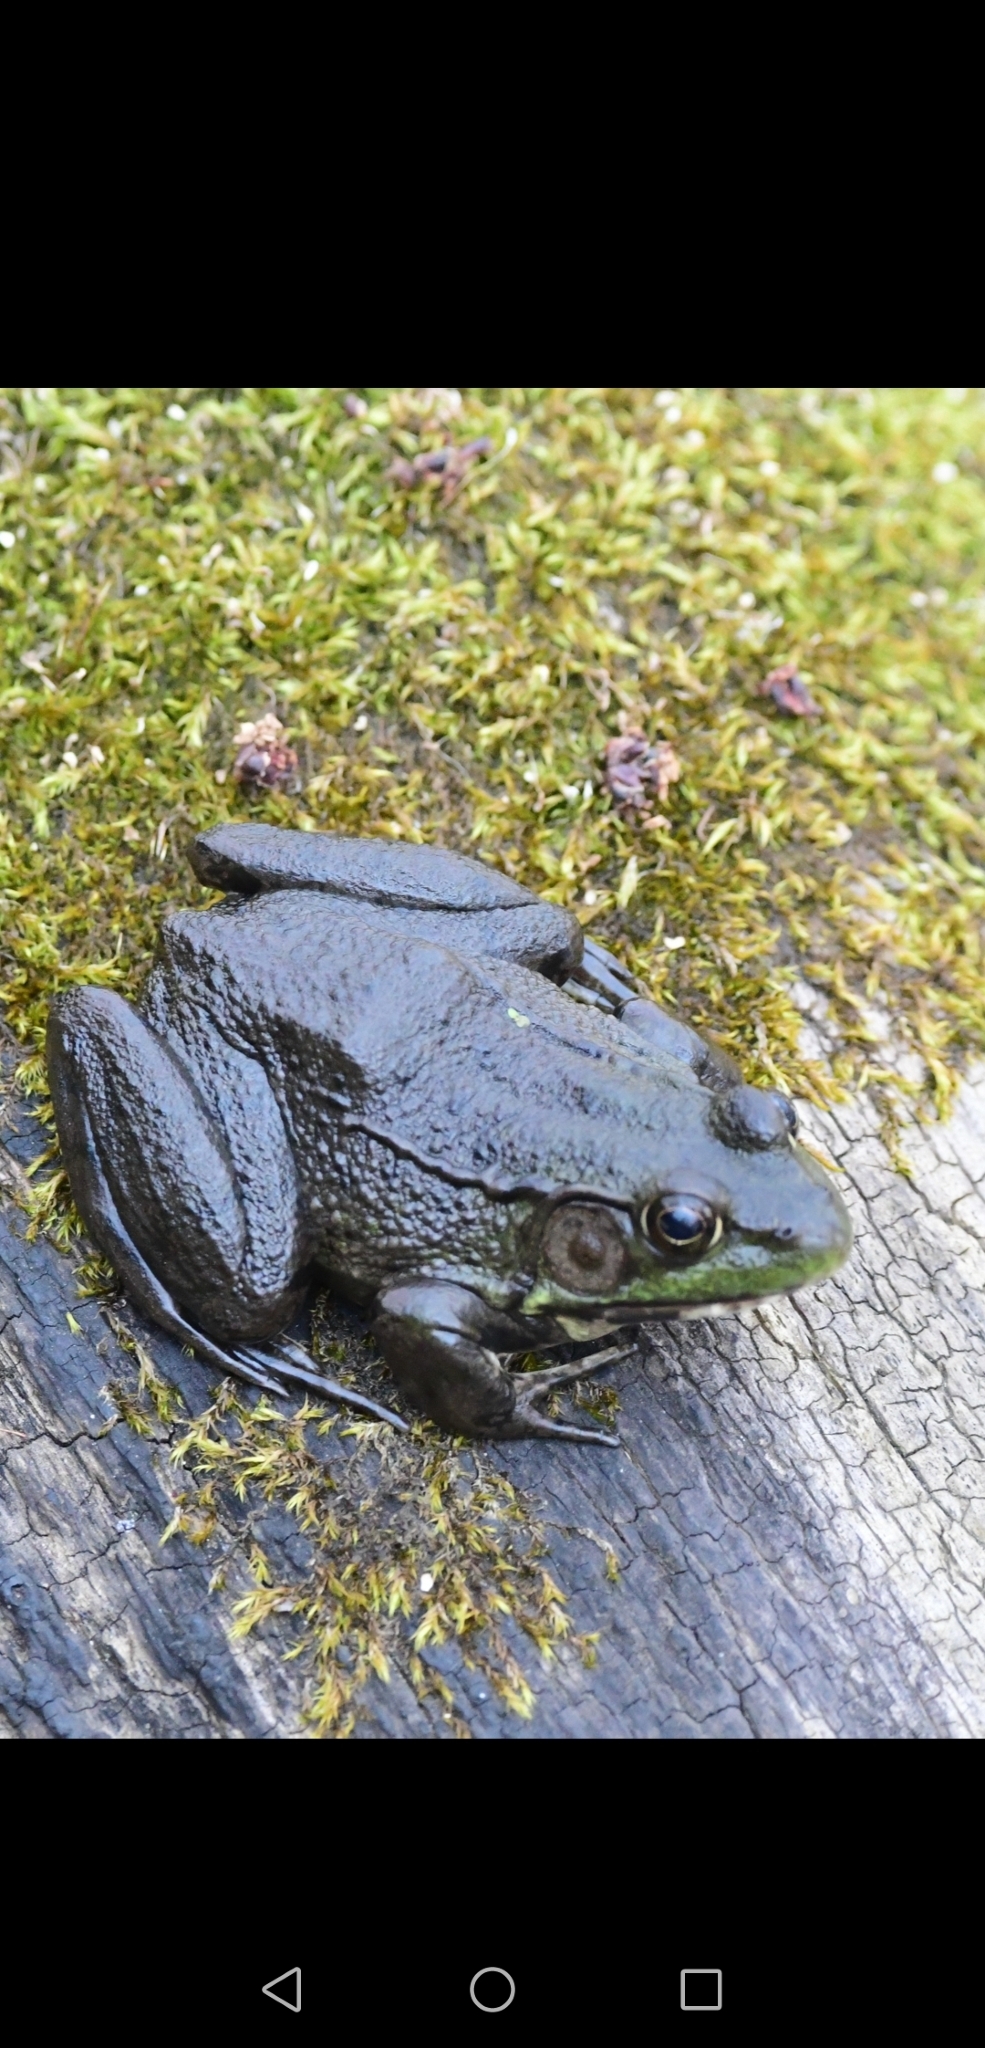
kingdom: Animalia
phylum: Chordata
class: Amphibia
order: Anura
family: Ranidae
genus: Lithobates
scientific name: Lithobates clamitans
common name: Green frog
